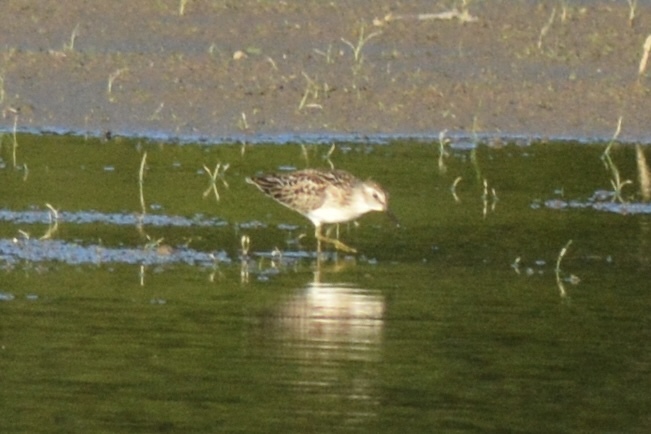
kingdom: Animalia
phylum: Chordata
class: Aves
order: Charadriiformes
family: Scolopacidae
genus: Calidris
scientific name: Calidris minutilla
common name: Least sandpiper
